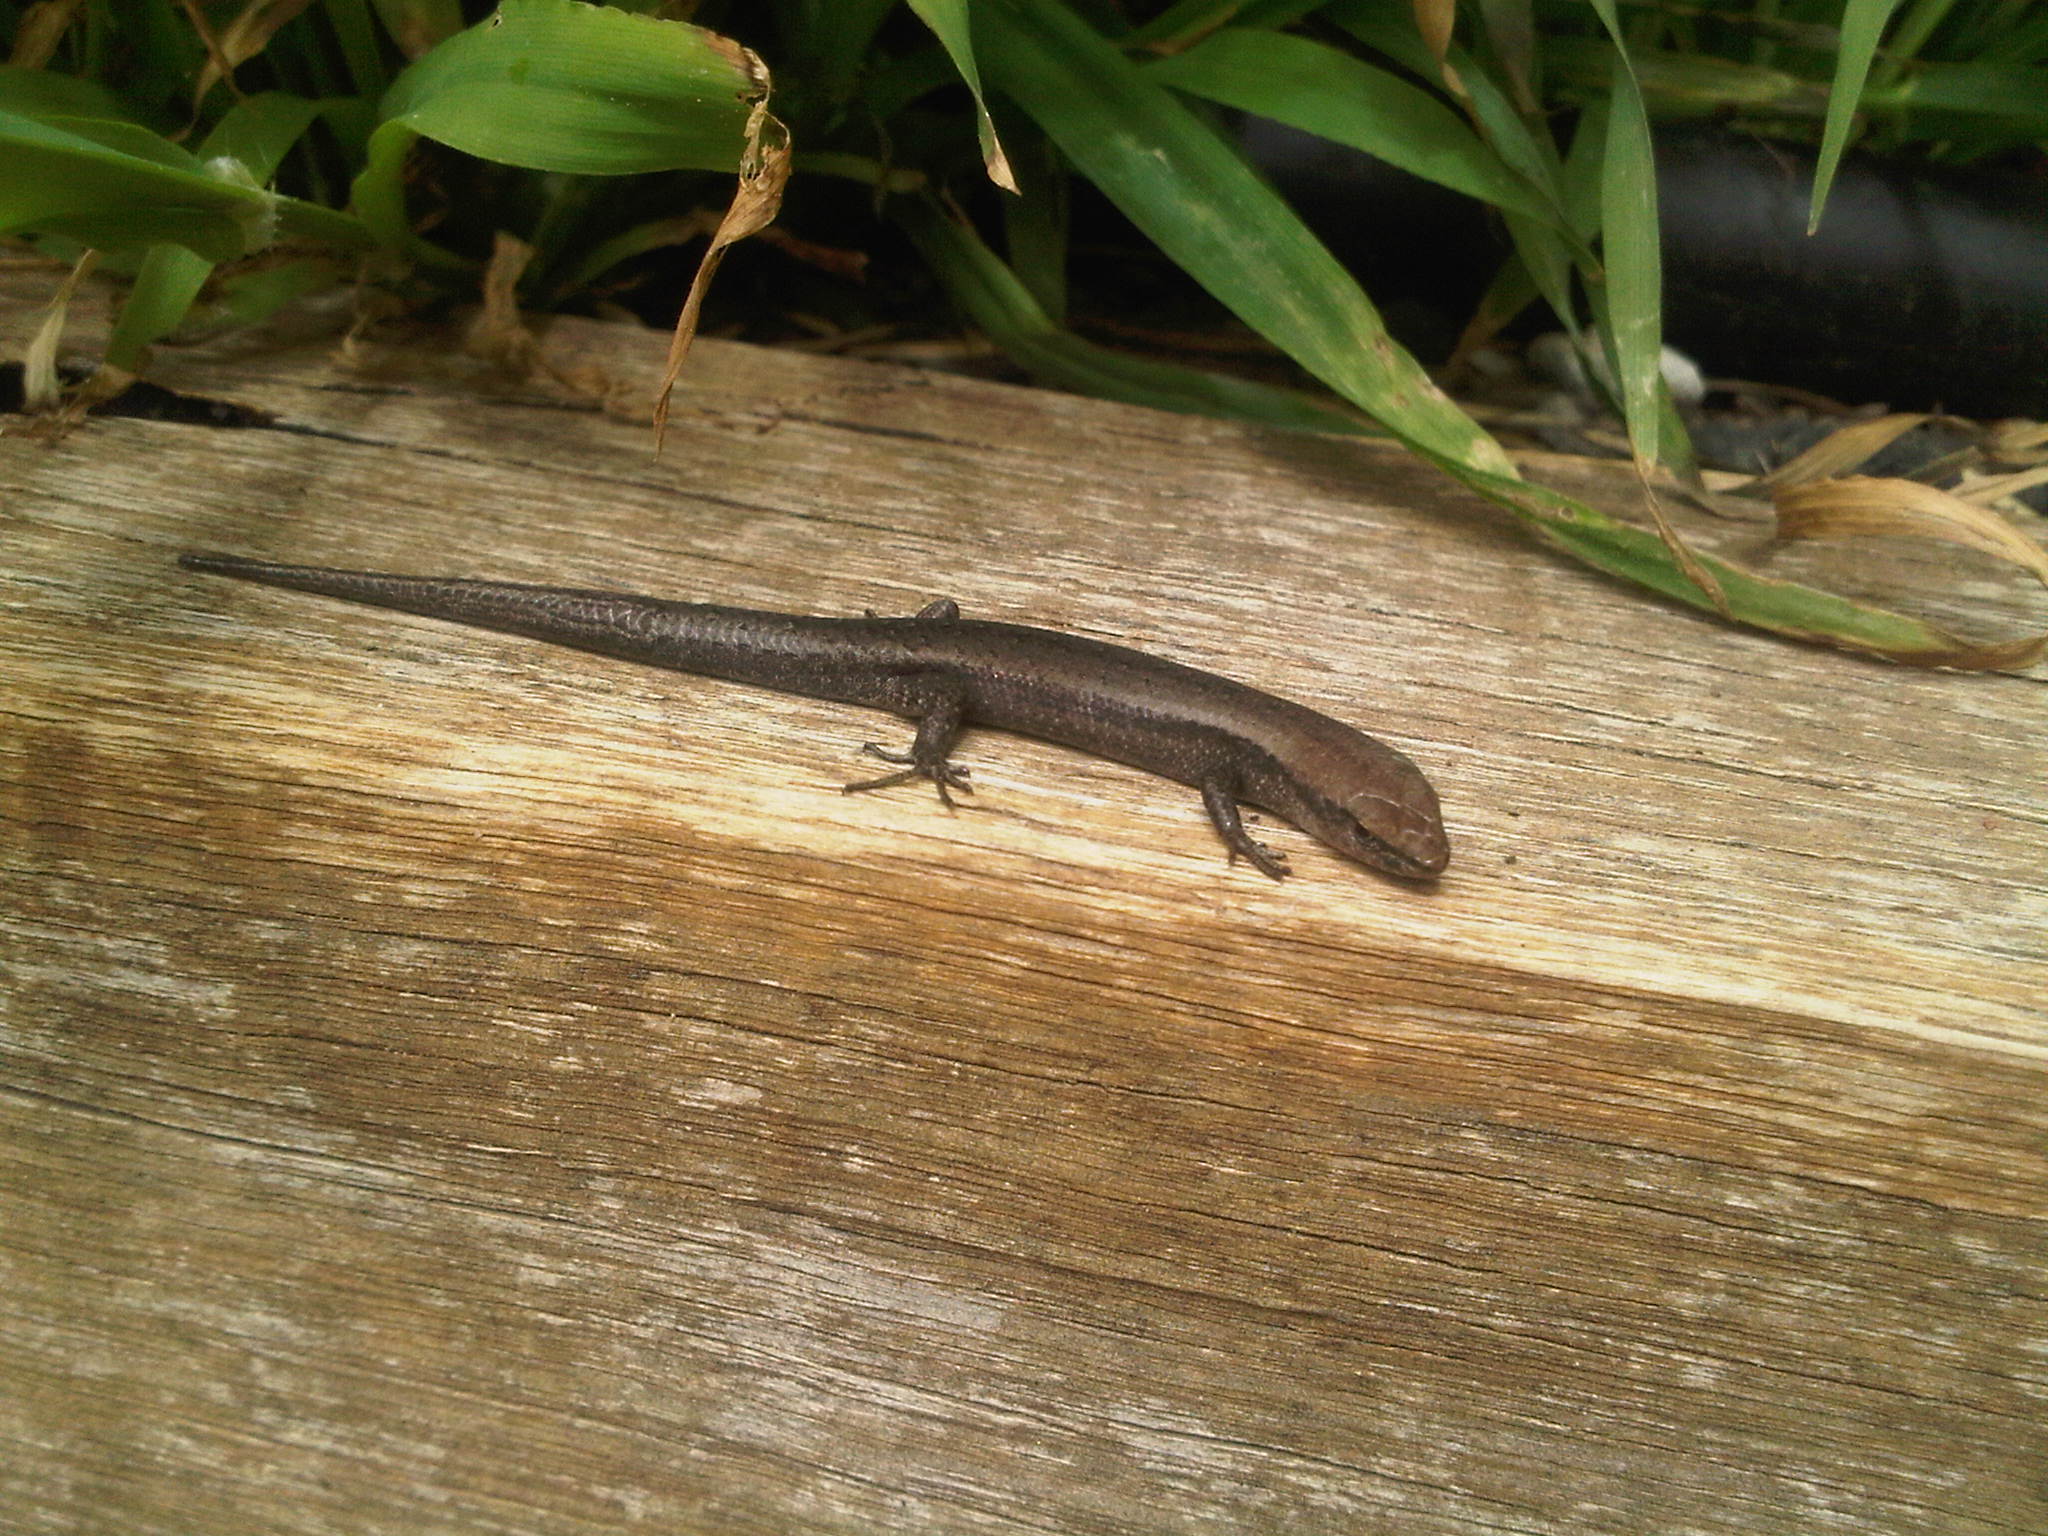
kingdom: Animalia
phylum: Chordata
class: Squamata
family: Scincidae
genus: Lampropholis
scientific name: Lampropholis delicata
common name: Plague skink
